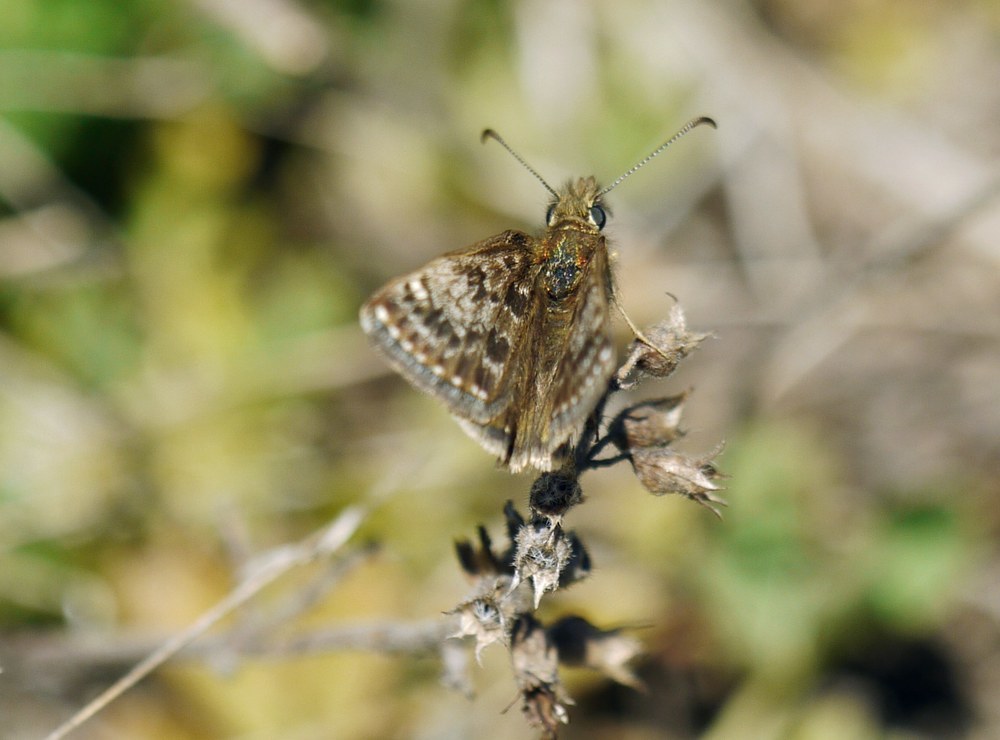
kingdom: Animalia
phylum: Arthropoda
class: Insecta
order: Lepidoptera
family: Hesperiidae
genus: Erynnis
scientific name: Erynnis tages
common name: Dingy skipper
